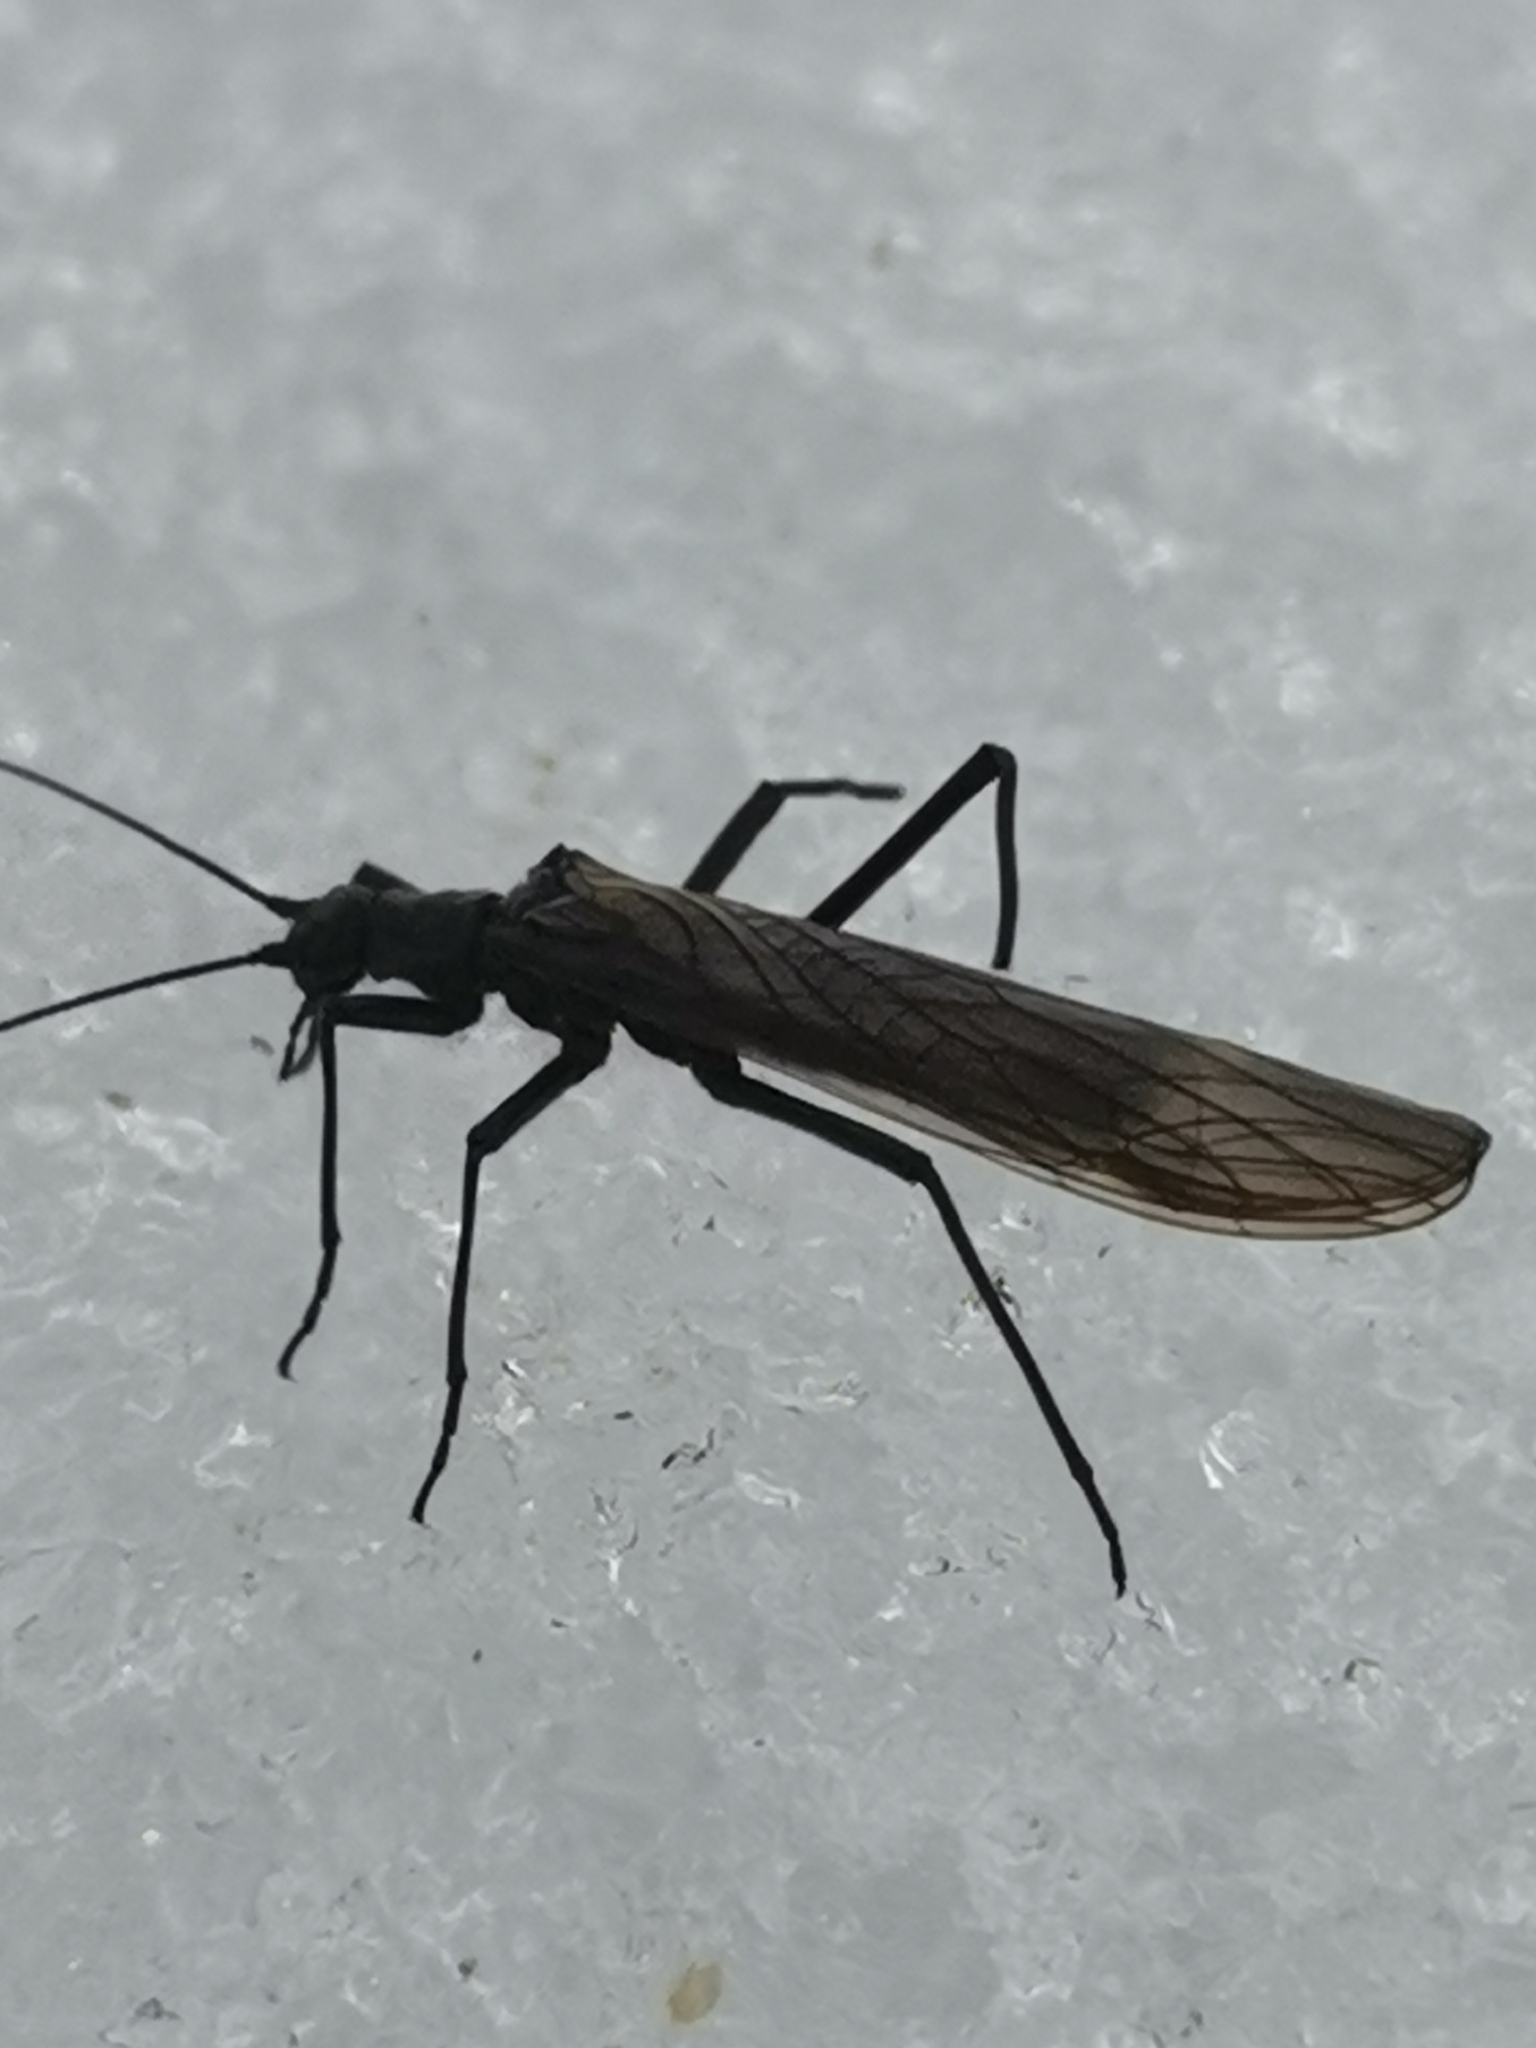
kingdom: Animalia
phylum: Arthropoda
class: Insecta
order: Plecoptera
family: Taeniopterygidae
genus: Taeniopteryx
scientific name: Taeniopteryx nebulosa
